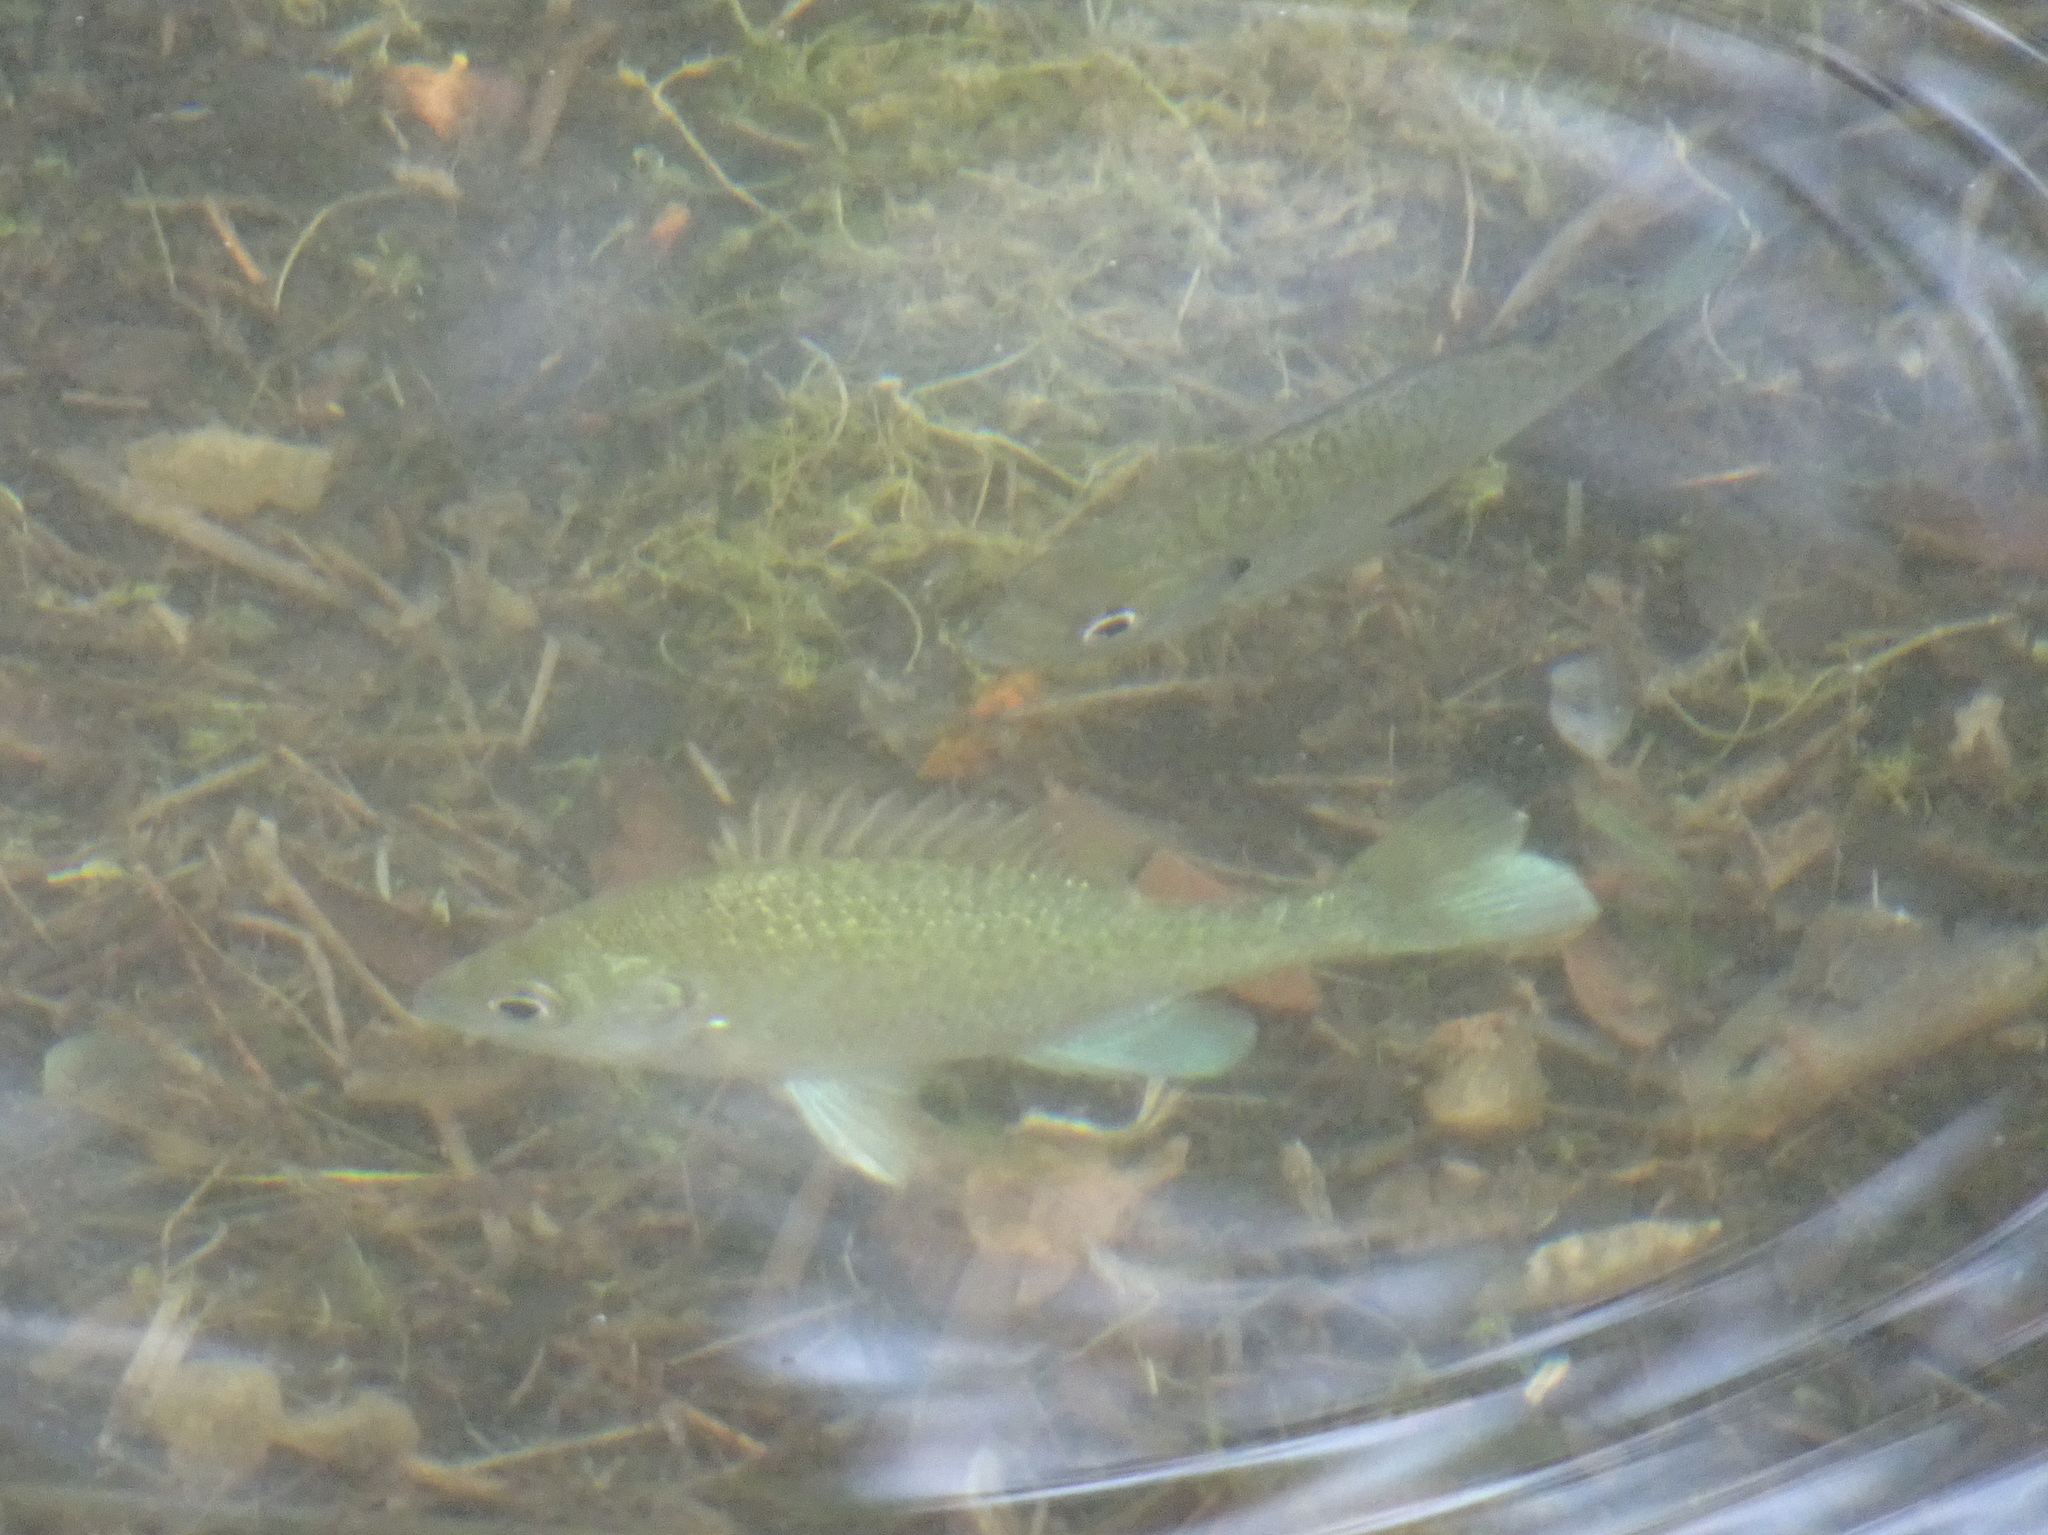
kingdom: Animalia
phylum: Chordata
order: Perciformes
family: Centrarchidae
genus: Lepomis
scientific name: Lepomis macrochirus
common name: Bluegill
